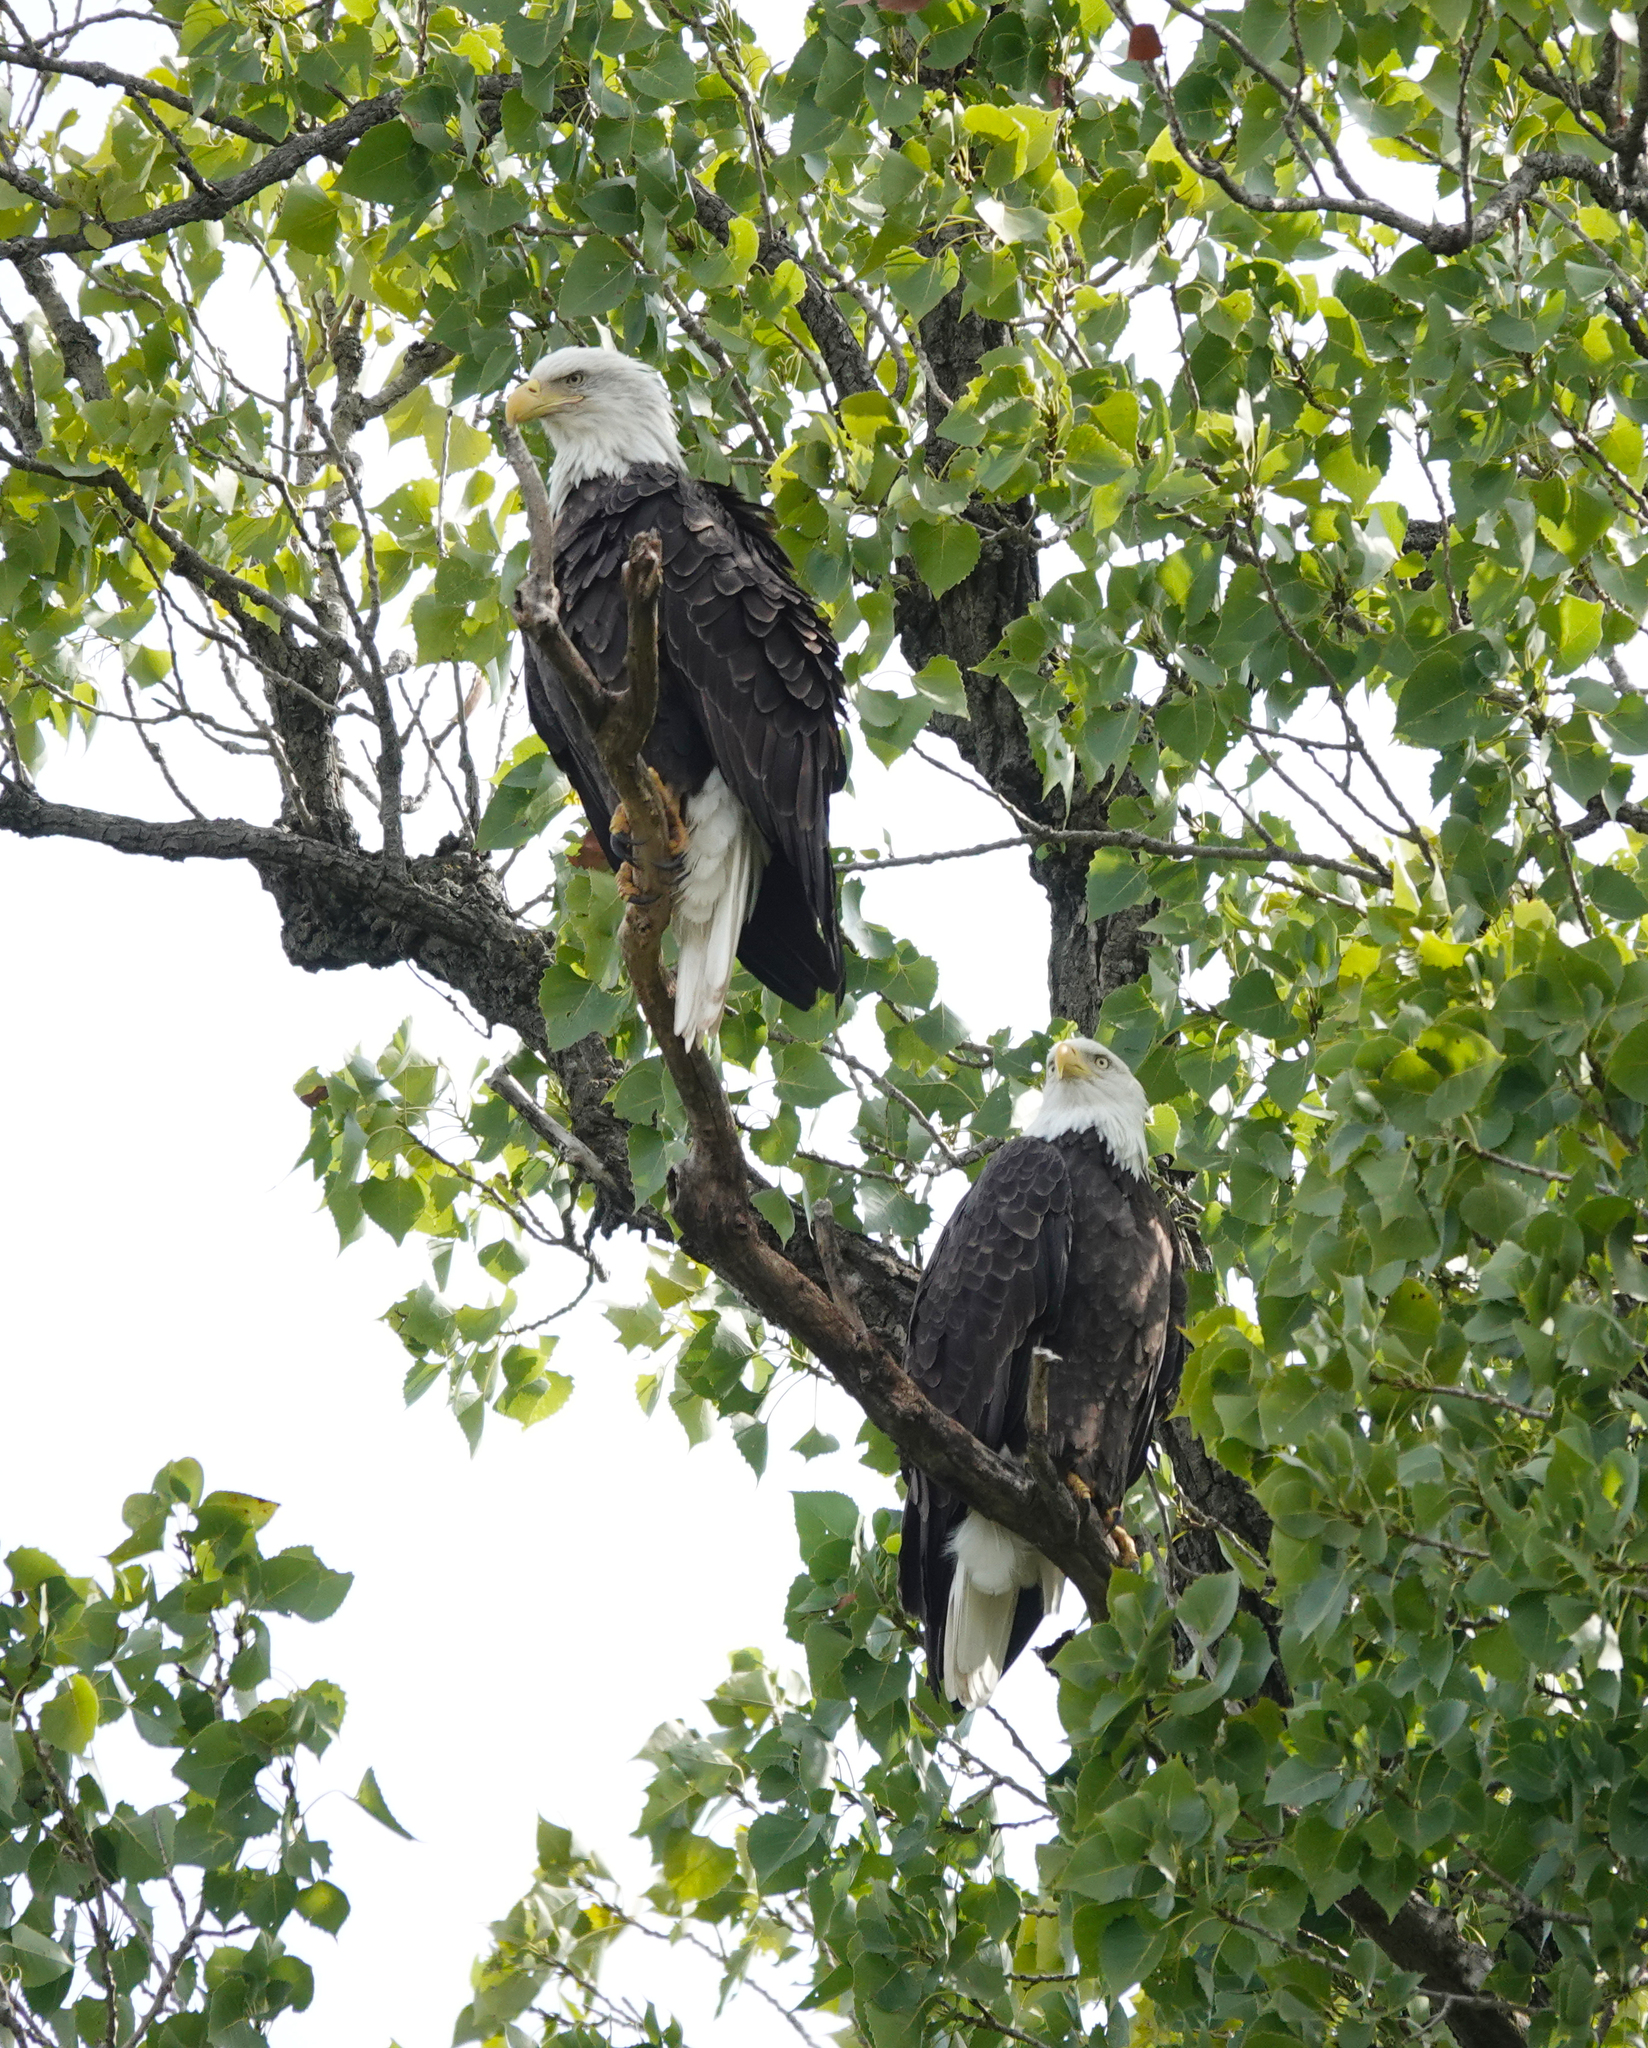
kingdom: Animalia
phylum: Chordata
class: Aves
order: Accipitriformes
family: Accipitridae
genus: Haliaeetus
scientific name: Haliaeetus leucocephalus
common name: Bald eagle
